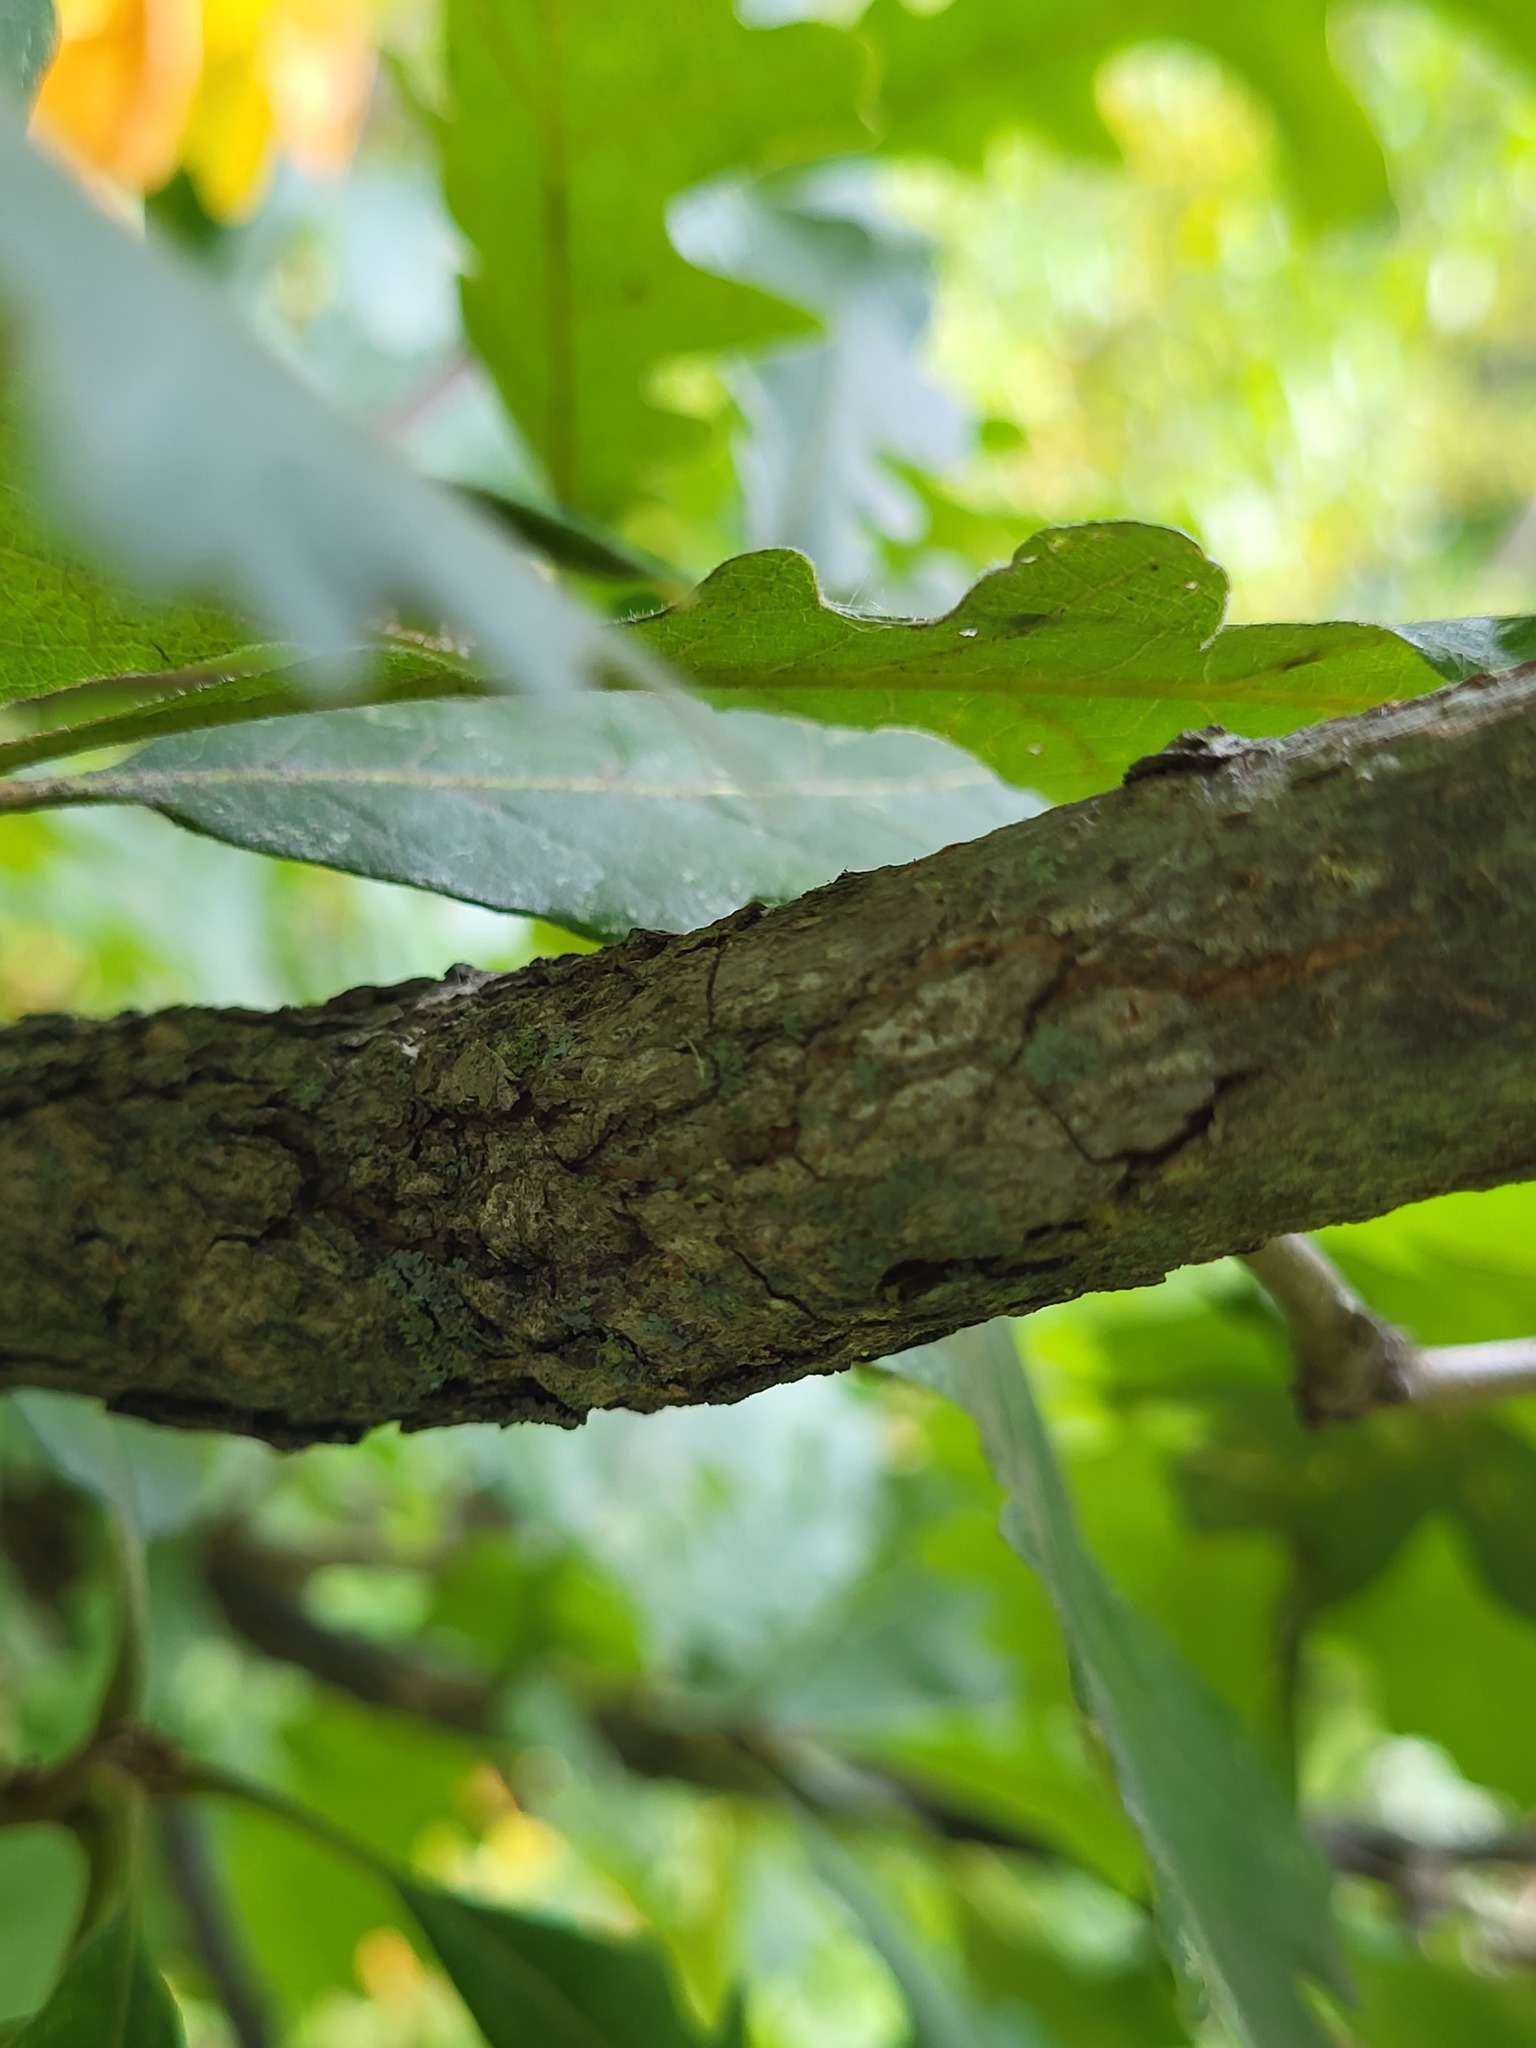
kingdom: Plantae
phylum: Tracheophyta
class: Magnoliopsida
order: Fagales
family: Fagaceae
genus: Quercus
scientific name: Quercus macrocarpa
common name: Bur oak
